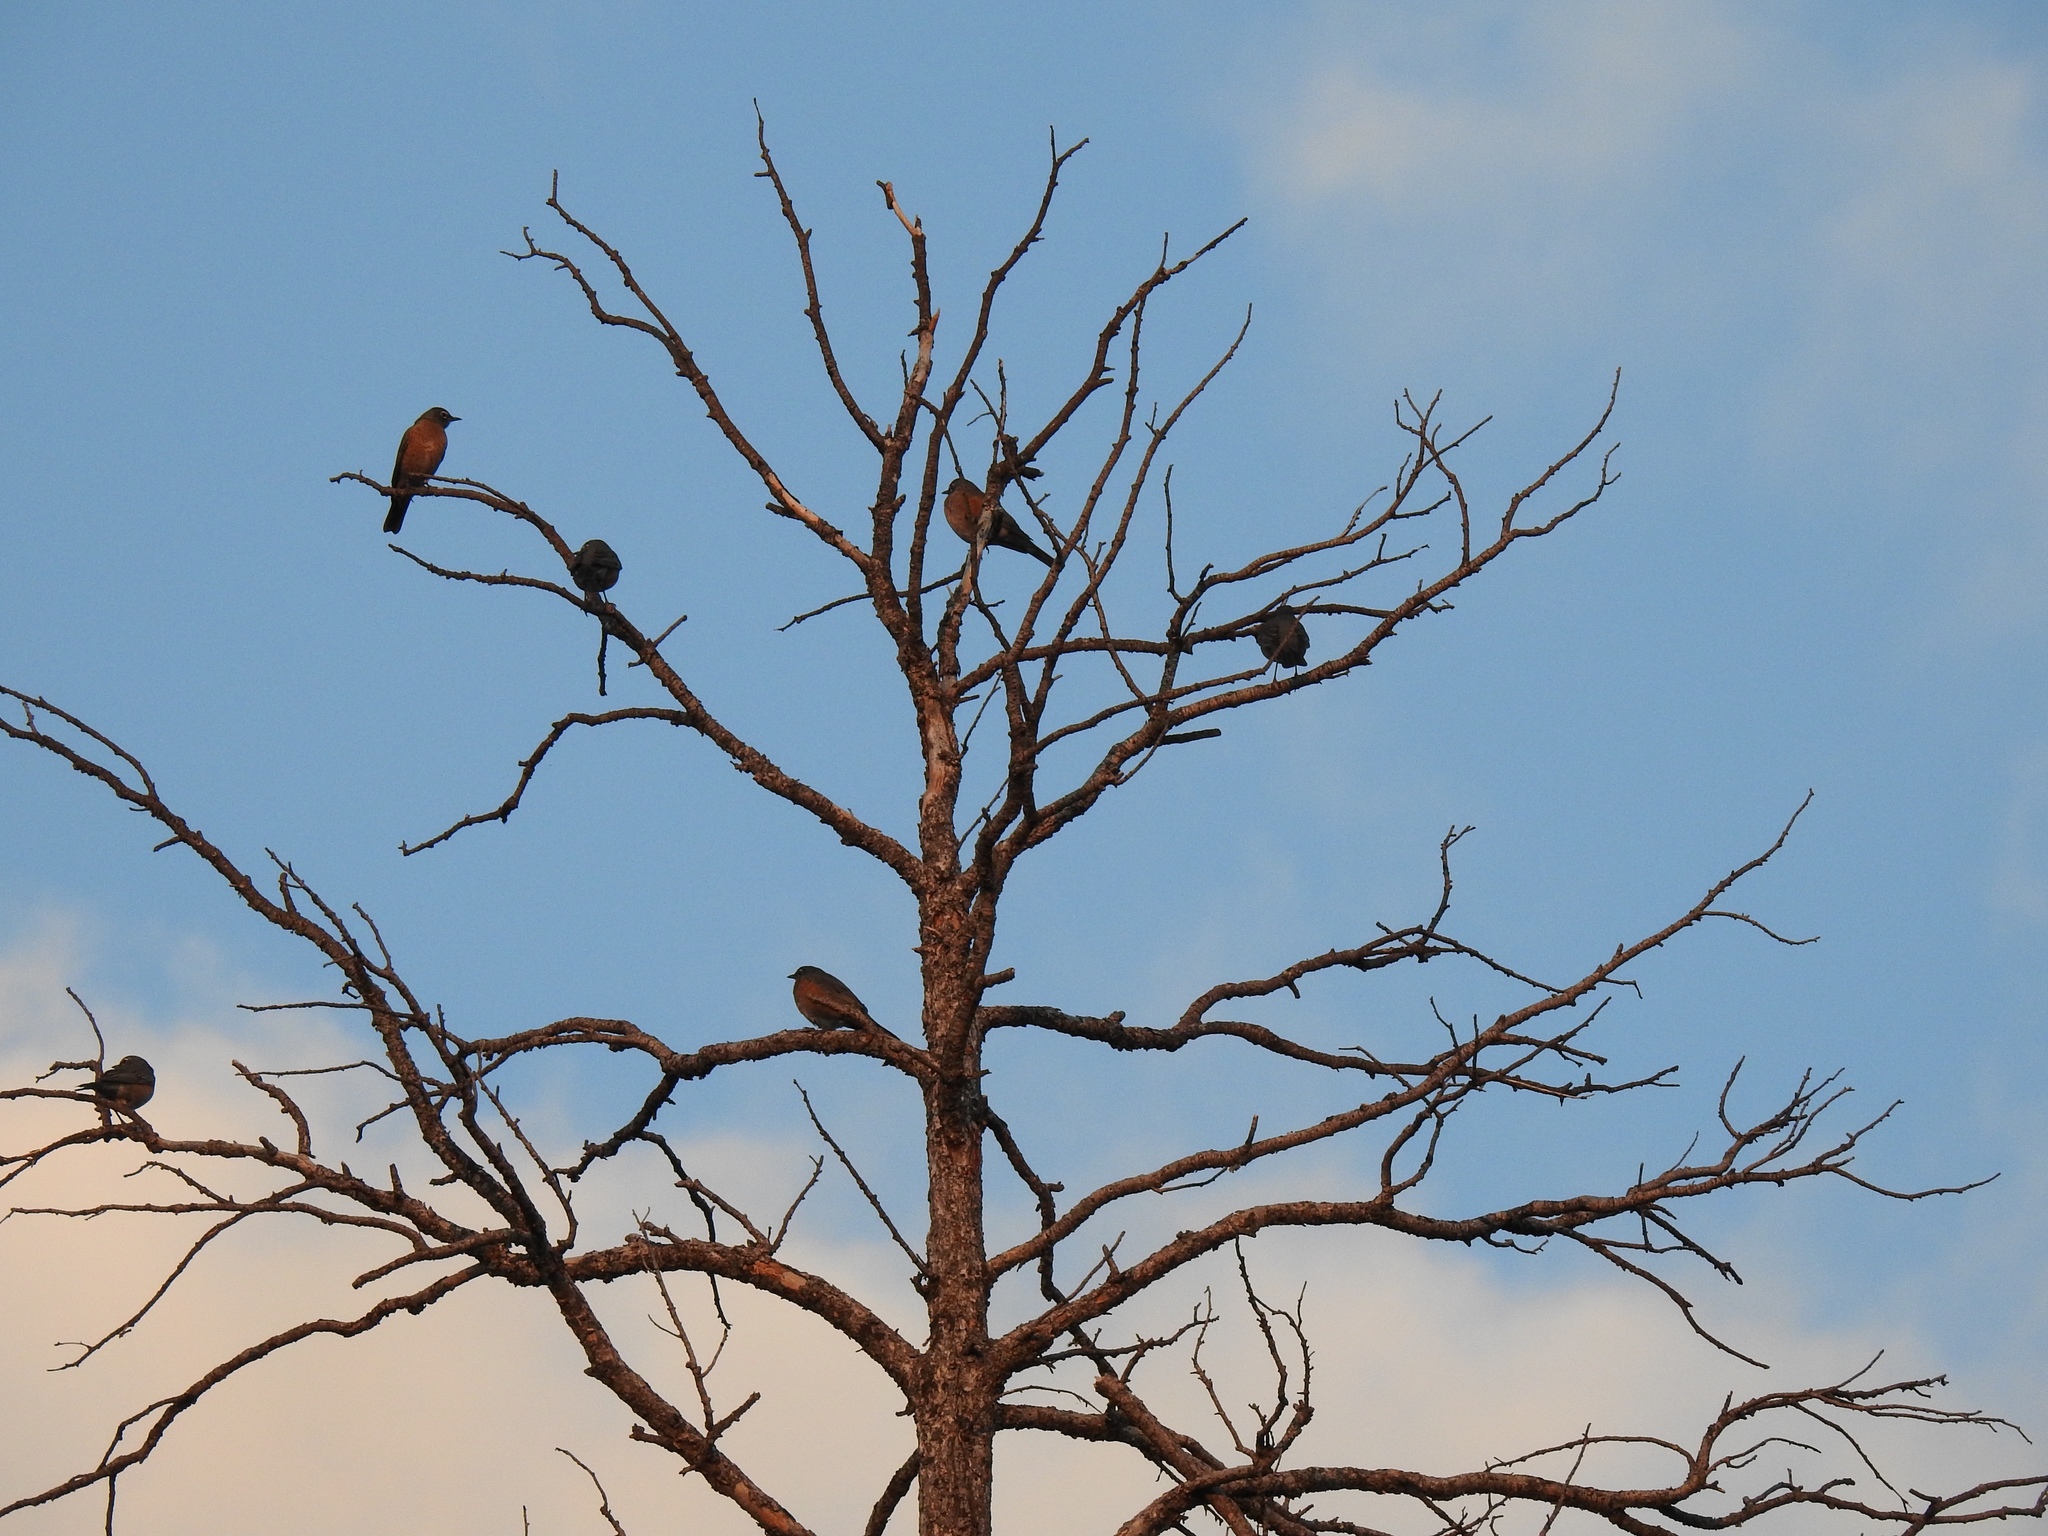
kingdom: Animalia
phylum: Chordata
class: Aves
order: Passeriformes
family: Turdidae
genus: Turdus
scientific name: Turdus migratorius
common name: American robin
